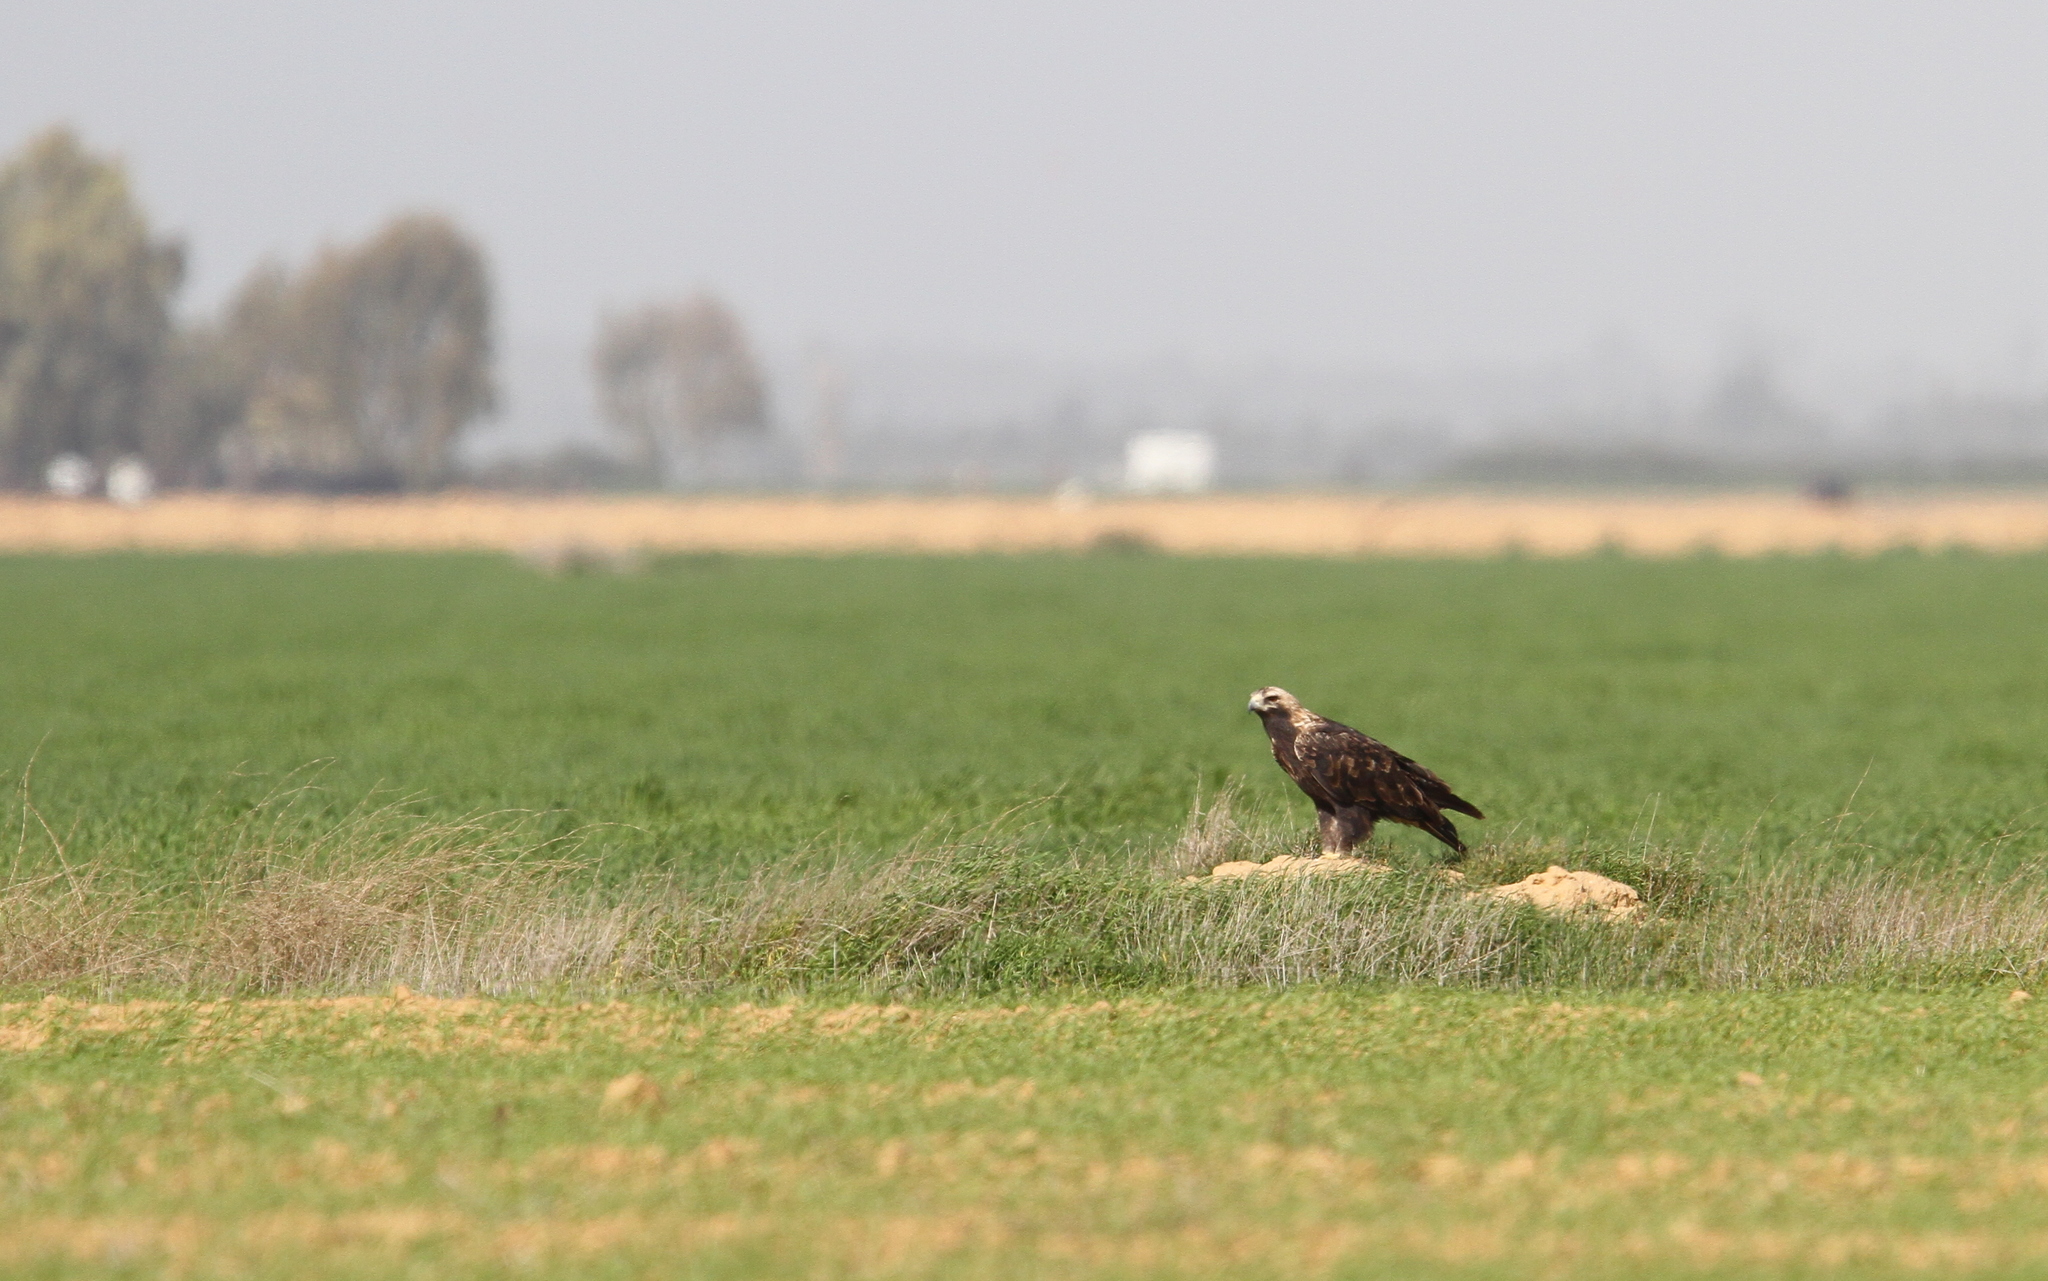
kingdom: Animalia
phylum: Chordata
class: Aves
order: Accipitriformes
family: Accipitridae
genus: Aquila
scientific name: Aquila heliaca
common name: Eastern imperial eagle
